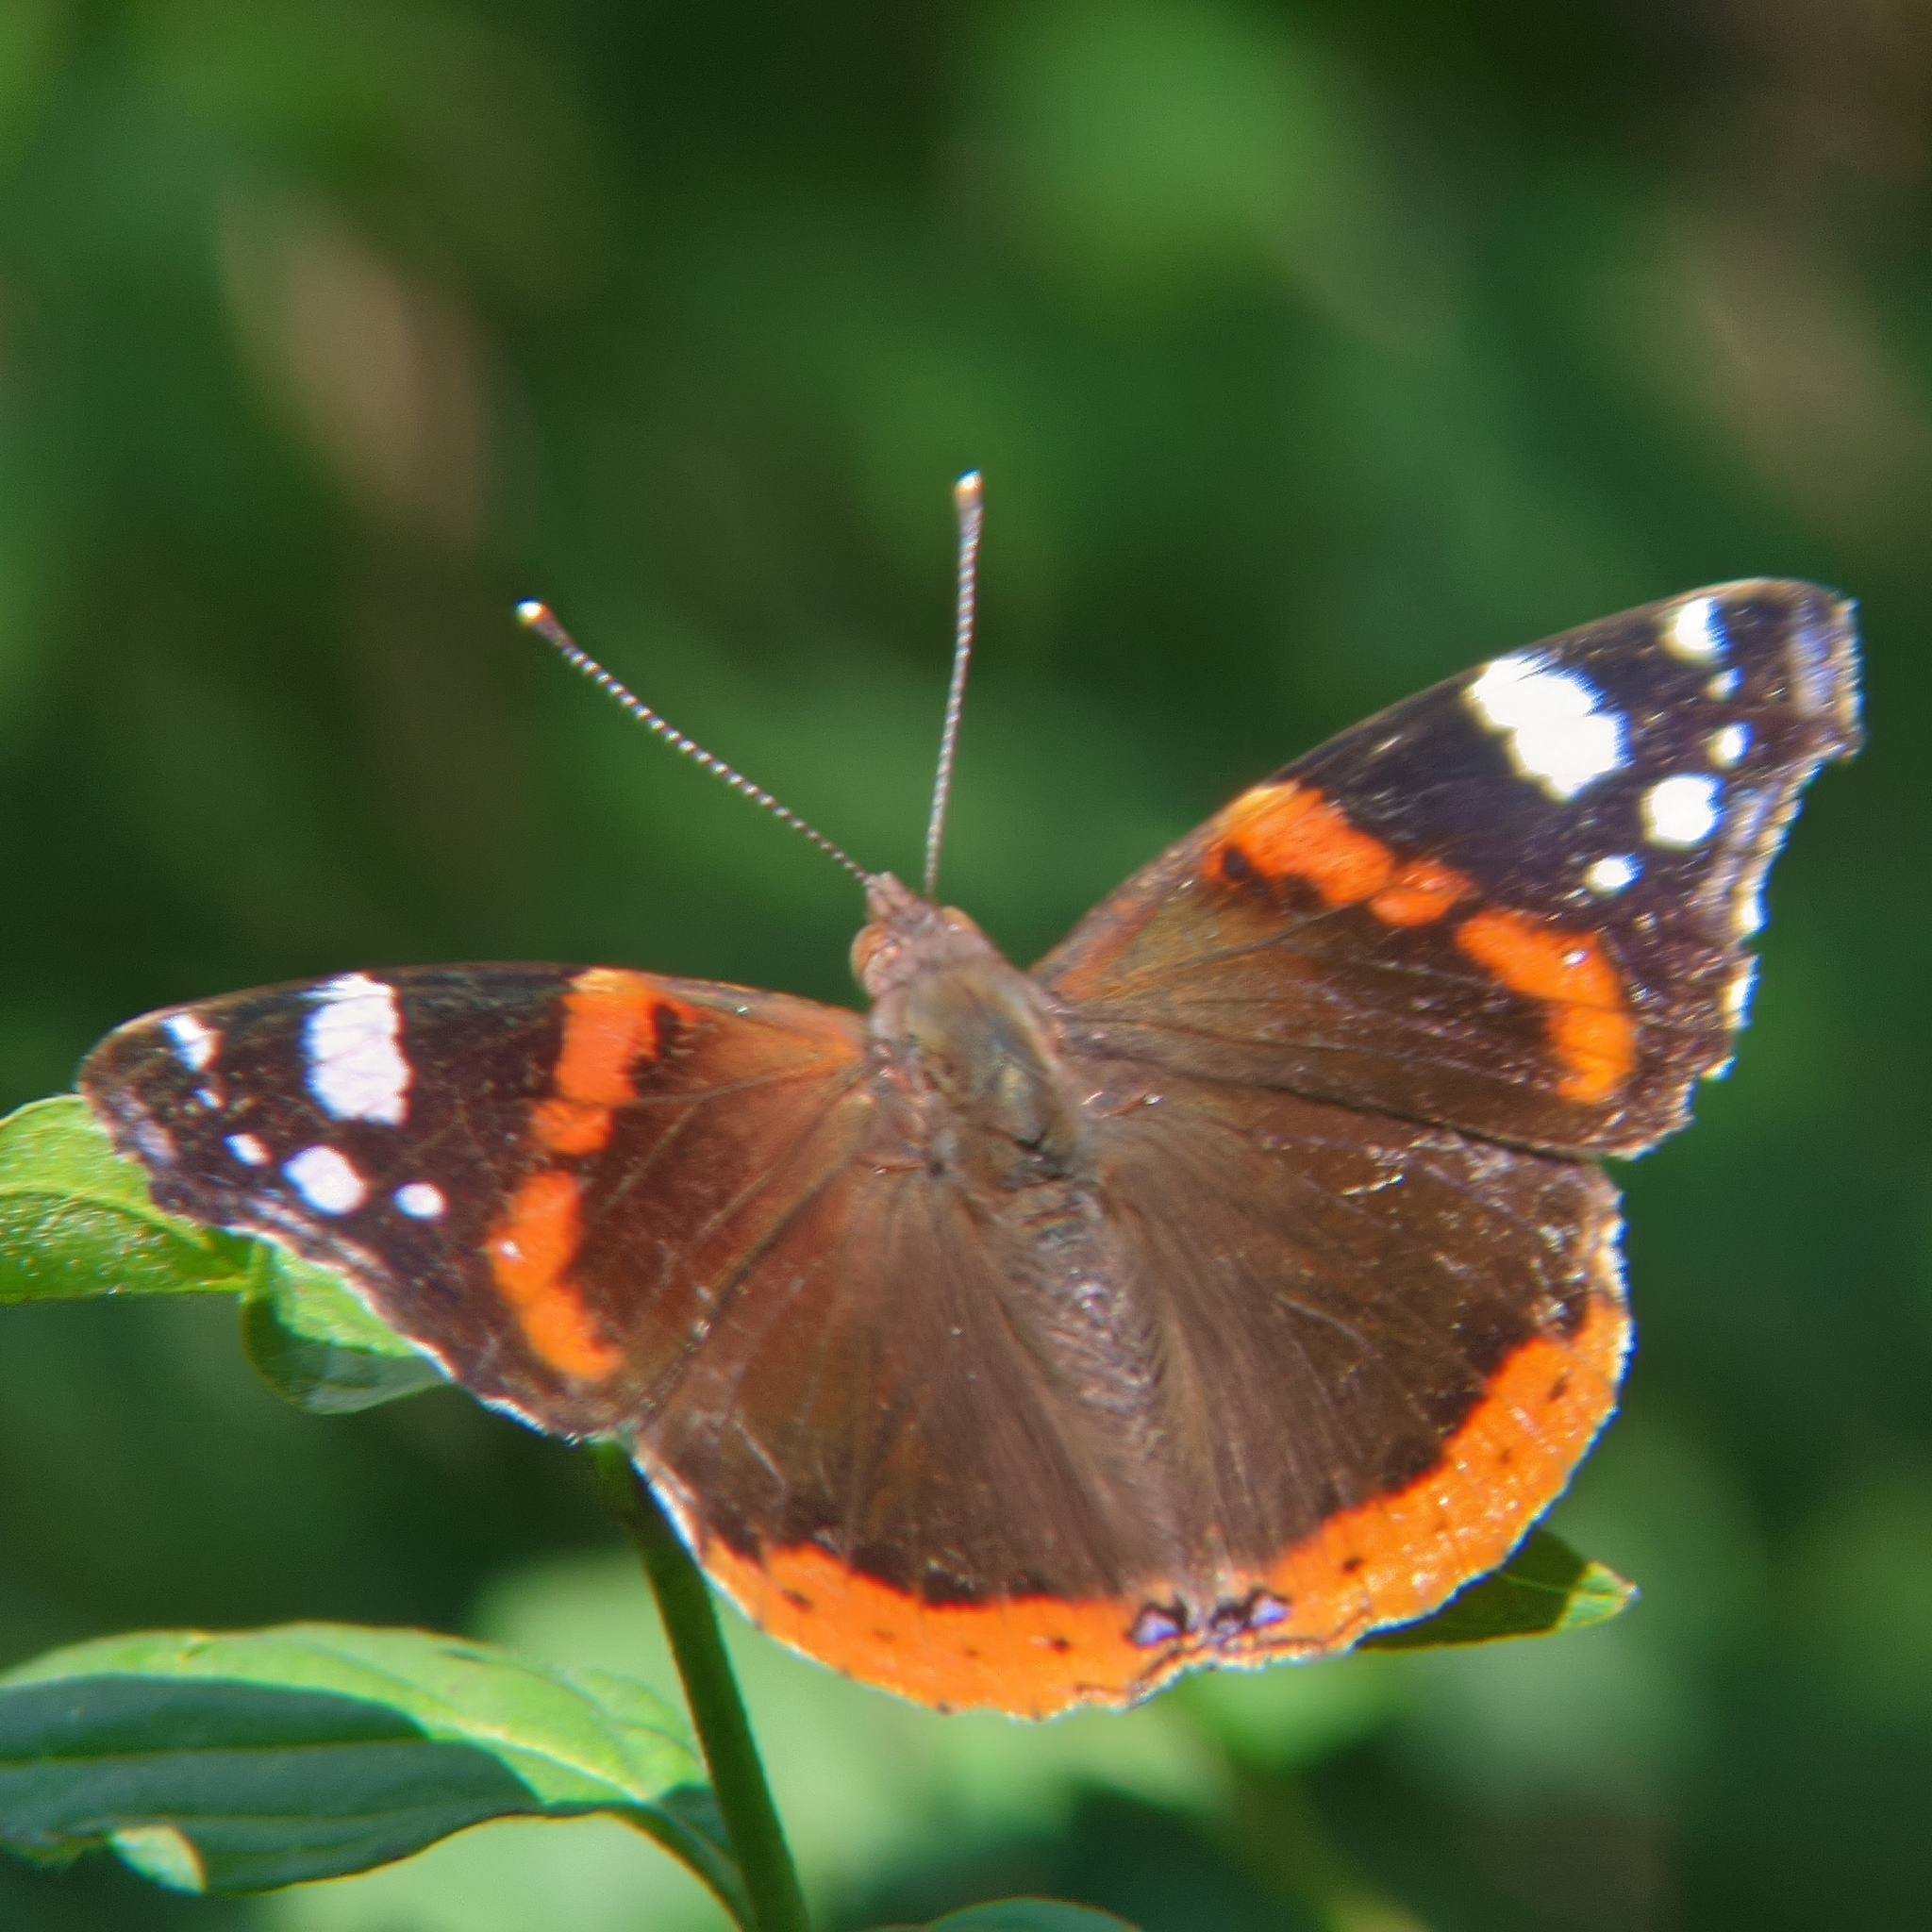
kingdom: Animalia
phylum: Arthropoda
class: Insecta
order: Lepidoptera
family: Nymphalidae
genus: Vanessa
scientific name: Vanessa atalanta
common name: Red admiral
